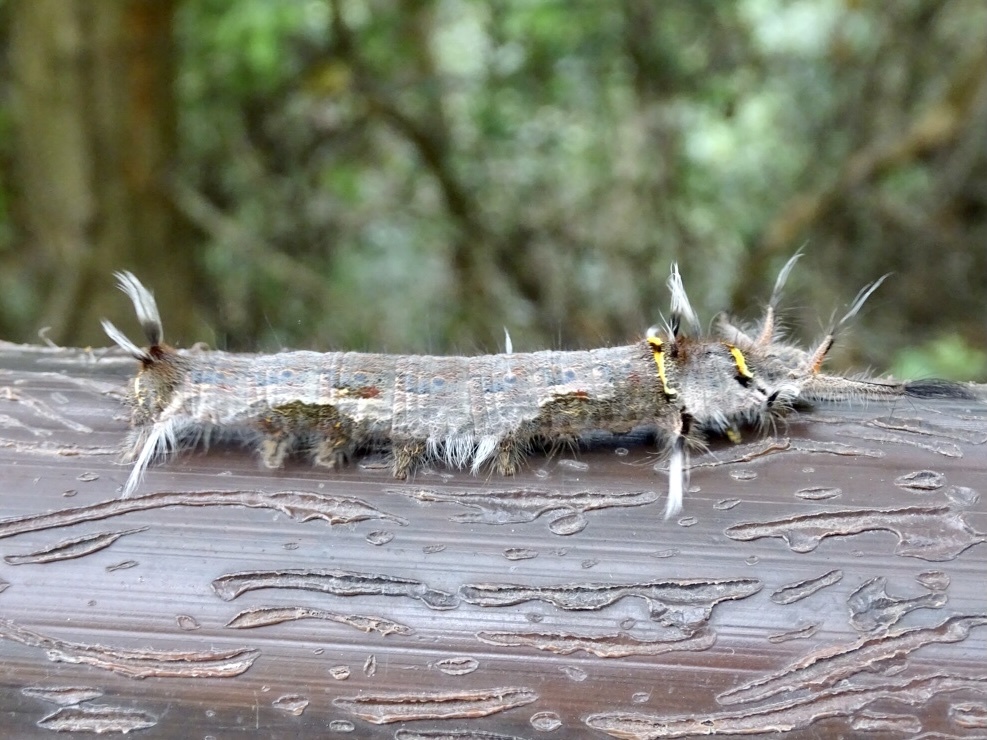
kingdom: Animalia
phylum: Arthropoda
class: Insecta
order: Lepidoptera
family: Lasiocampidae
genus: Kunugia
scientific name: Kunugia divaricata
